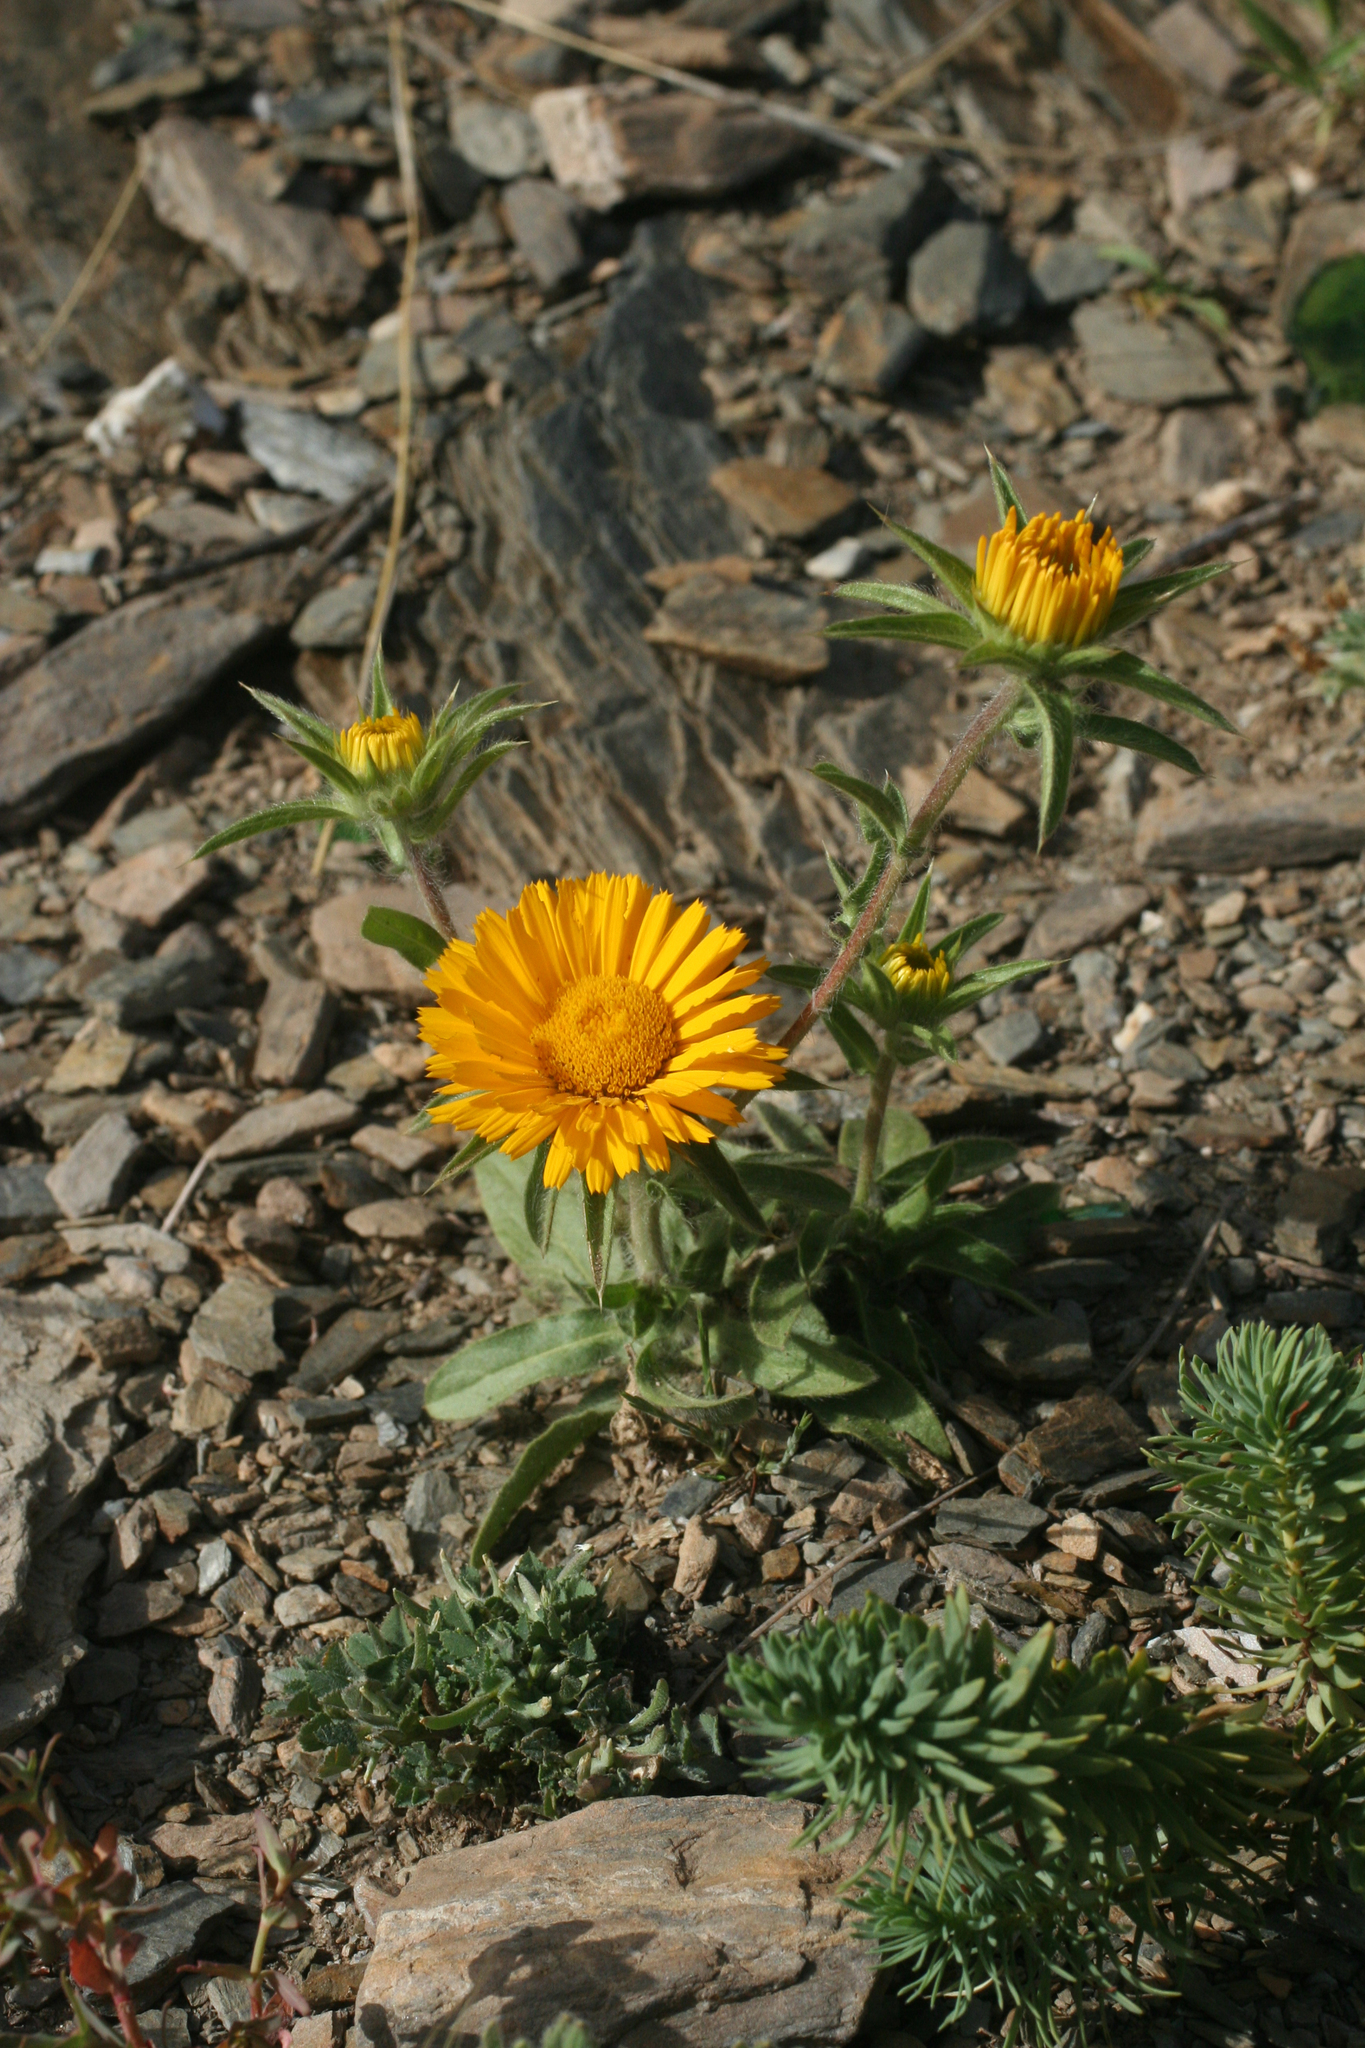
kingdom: Plantae
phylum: Tracheophyta
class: Magnoliopsida
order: Asterales
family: Asteraceae
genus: Pallenis
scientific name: Pallenis cuspidata
